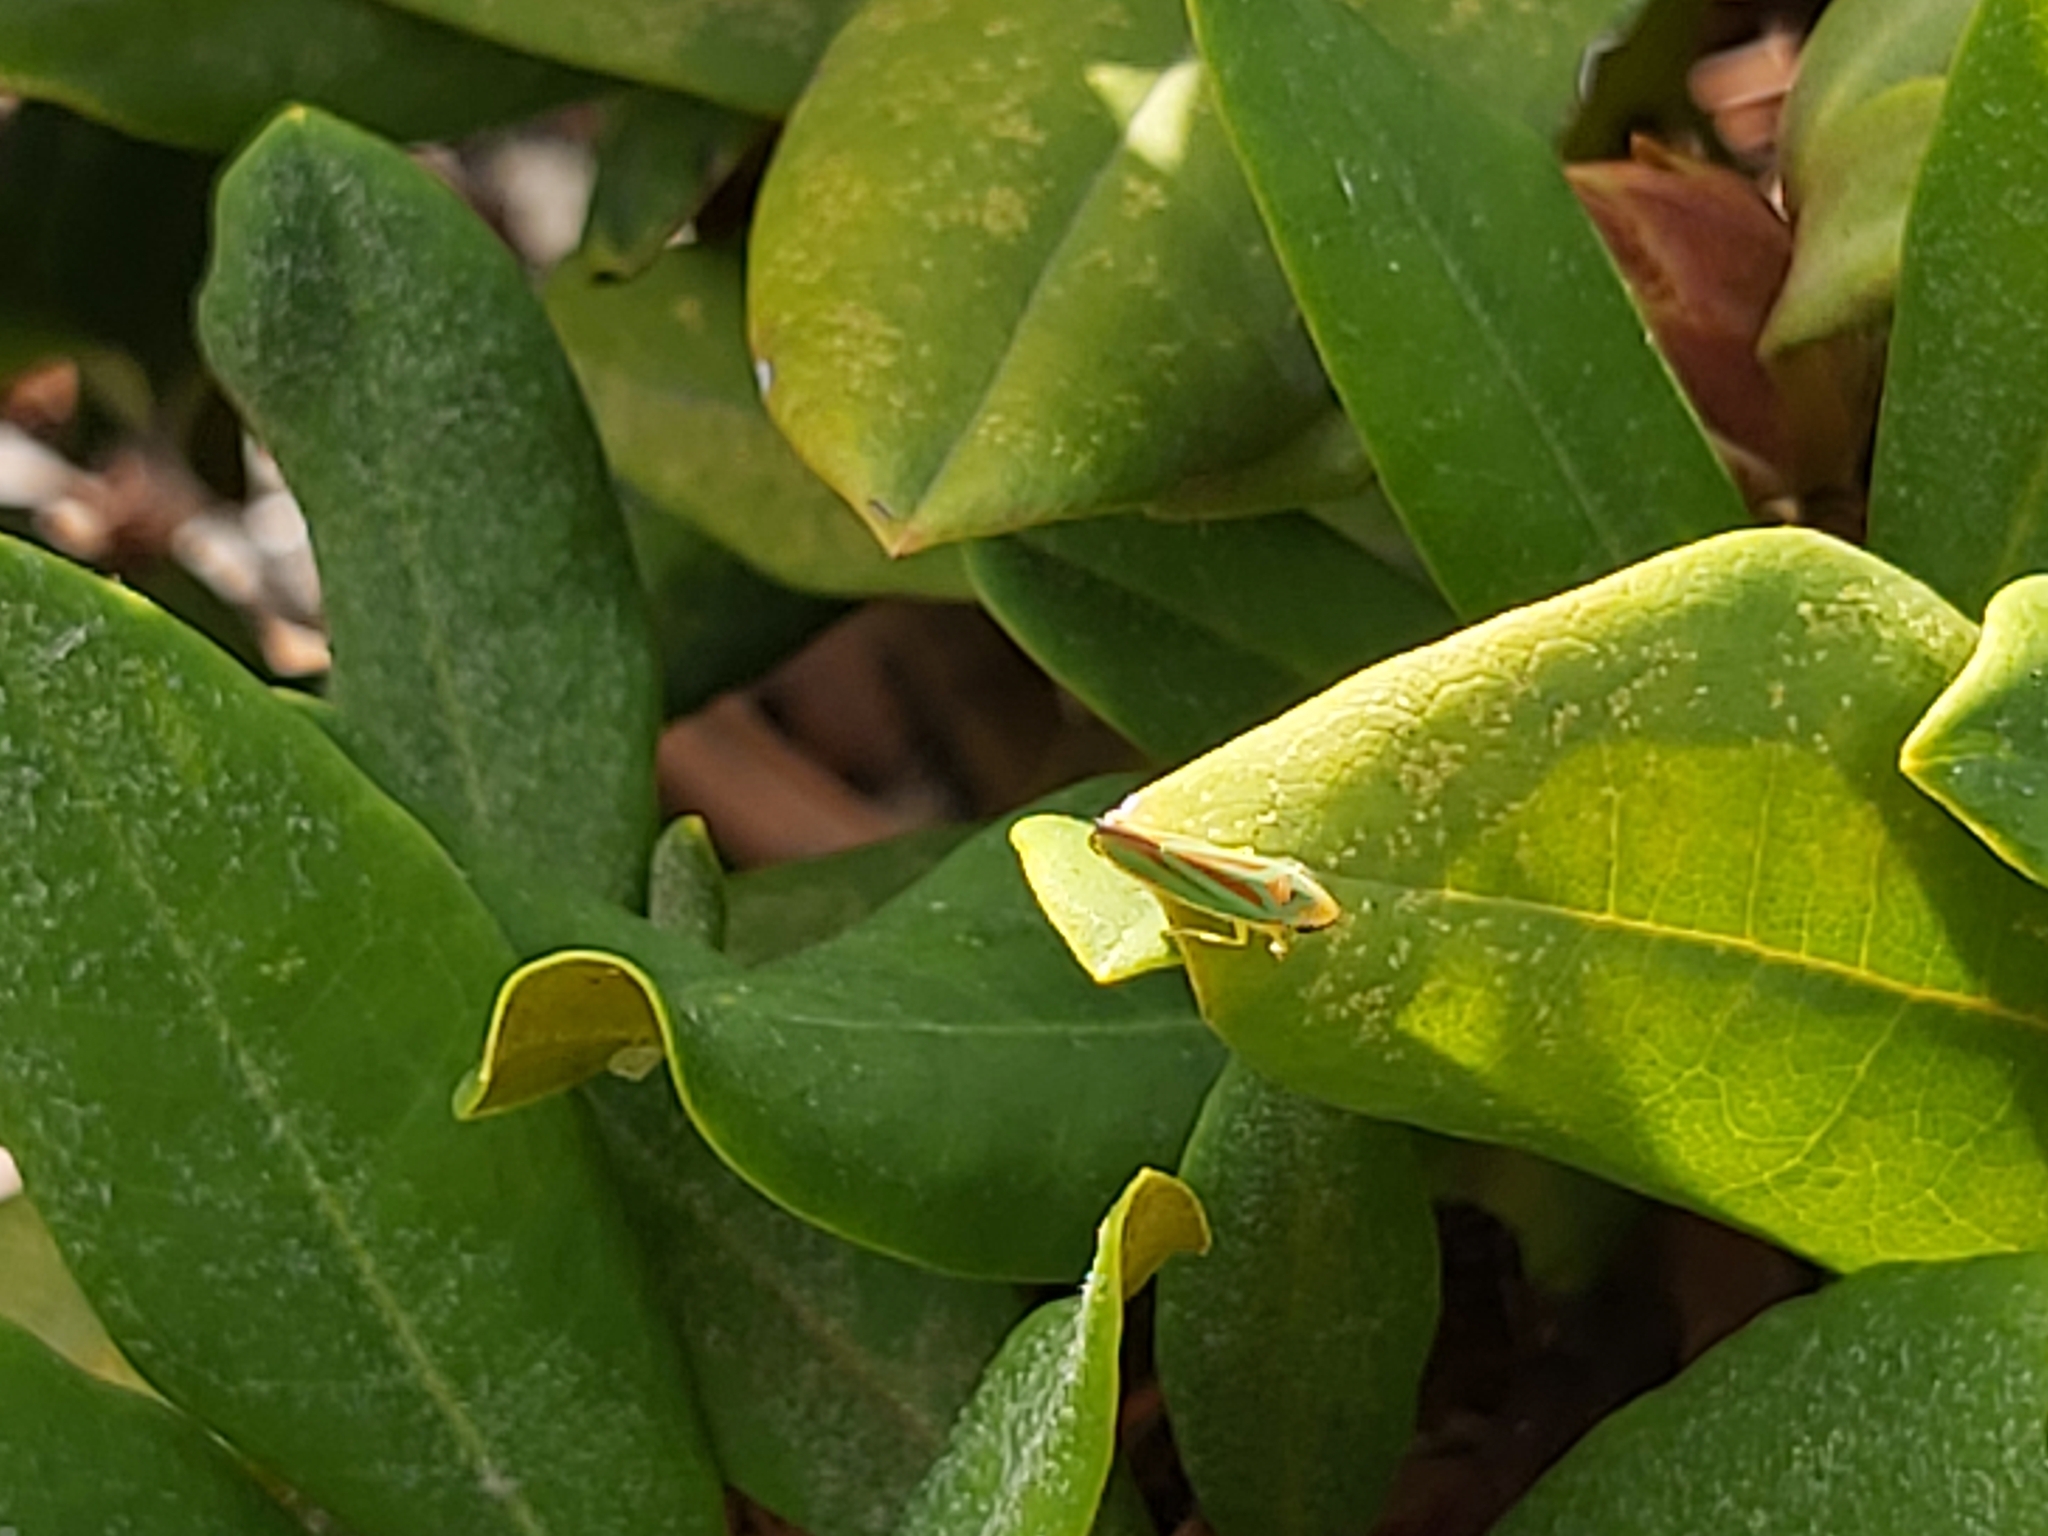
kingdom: Animalia
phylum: Arthropoda
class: Insecta
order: Hemiptera
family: Cicadellidae
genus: Graphocephala
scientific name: Graphocephala fennahi
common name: Rhododendron leafhopper
